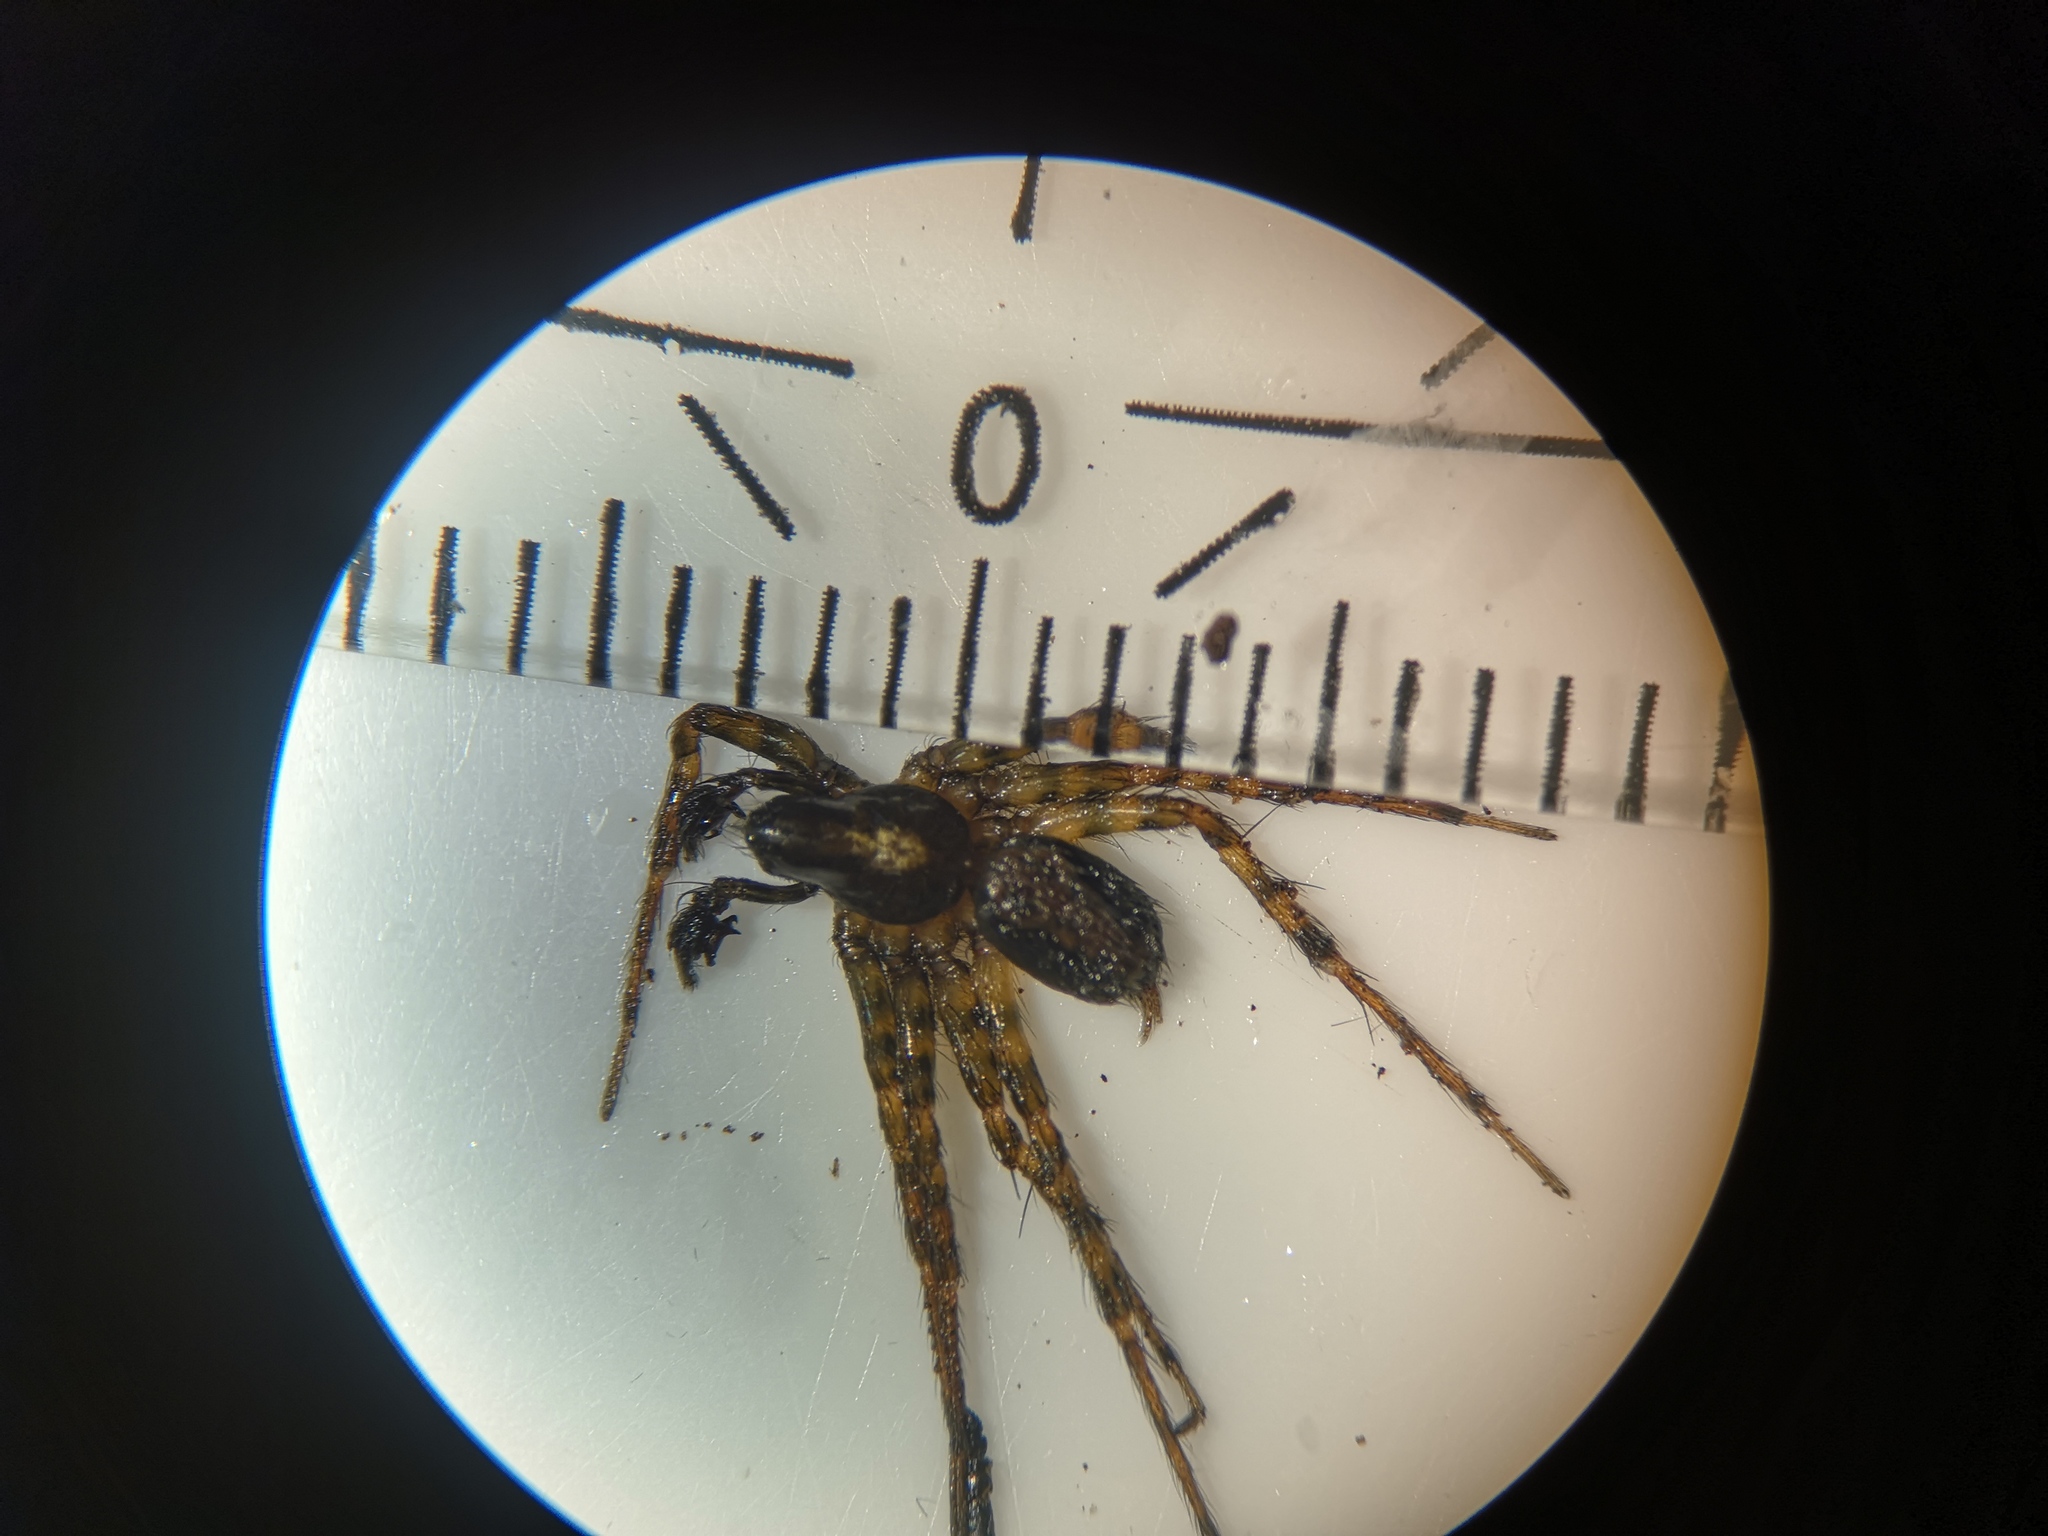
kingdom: Animalia
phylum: Arthropoda
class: Arachnida
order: Araneae
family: Agelenidae
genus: Textrix
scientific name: Textrix denticulata
